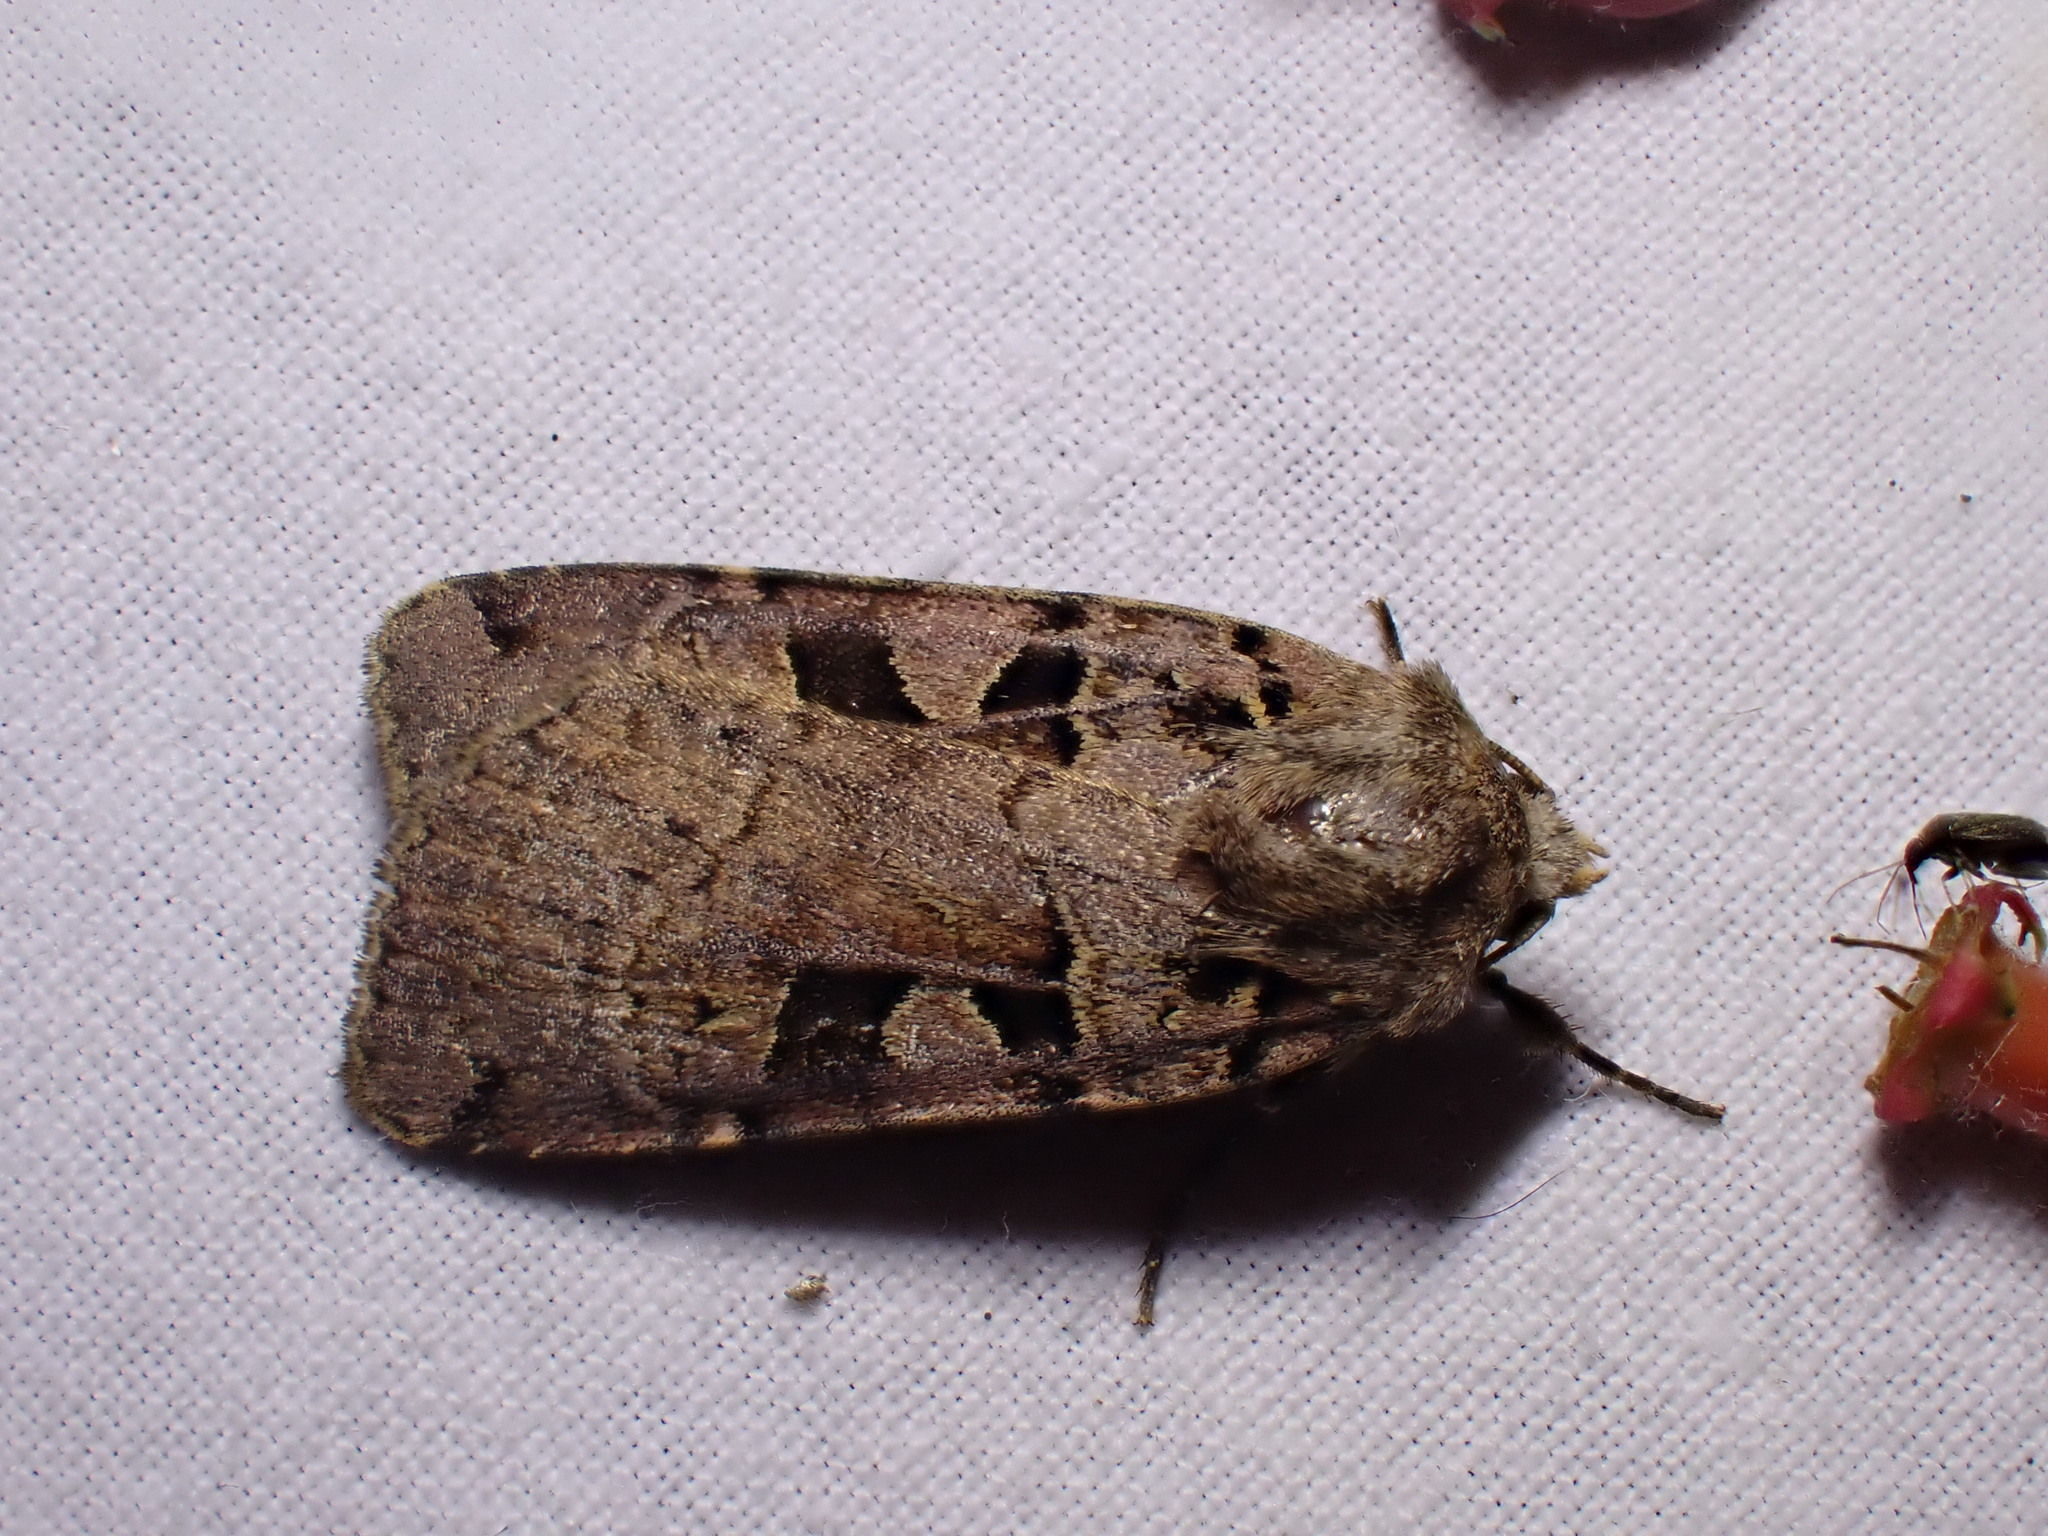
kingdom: Animalia
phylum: Arthropoda
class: Insecta
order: Lepidoptera
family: Noctuidae
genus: Xestia
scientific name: Xestia triangulum
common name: Double square-spot
